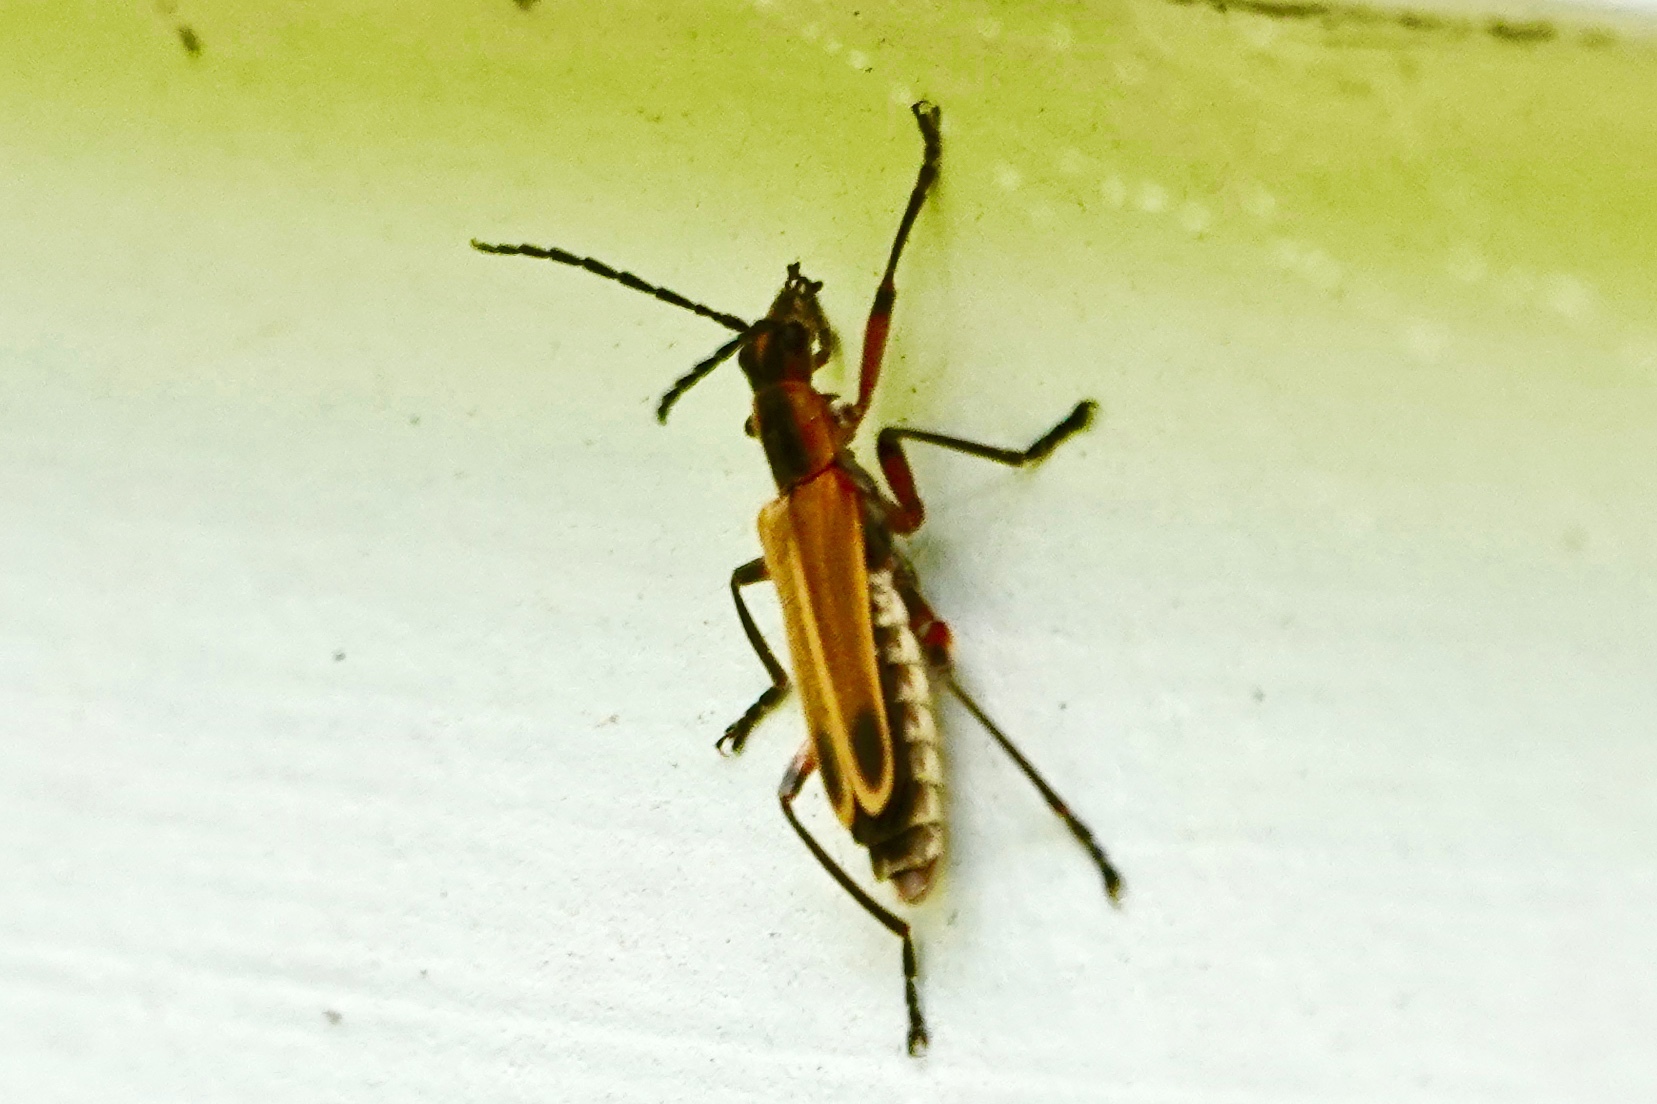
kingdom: Animalia
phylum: Arthropoda
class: Insecta
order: Coleoptera
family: Cantharidae
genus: Chauliognathus
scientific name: Chauliognathus marginatus
